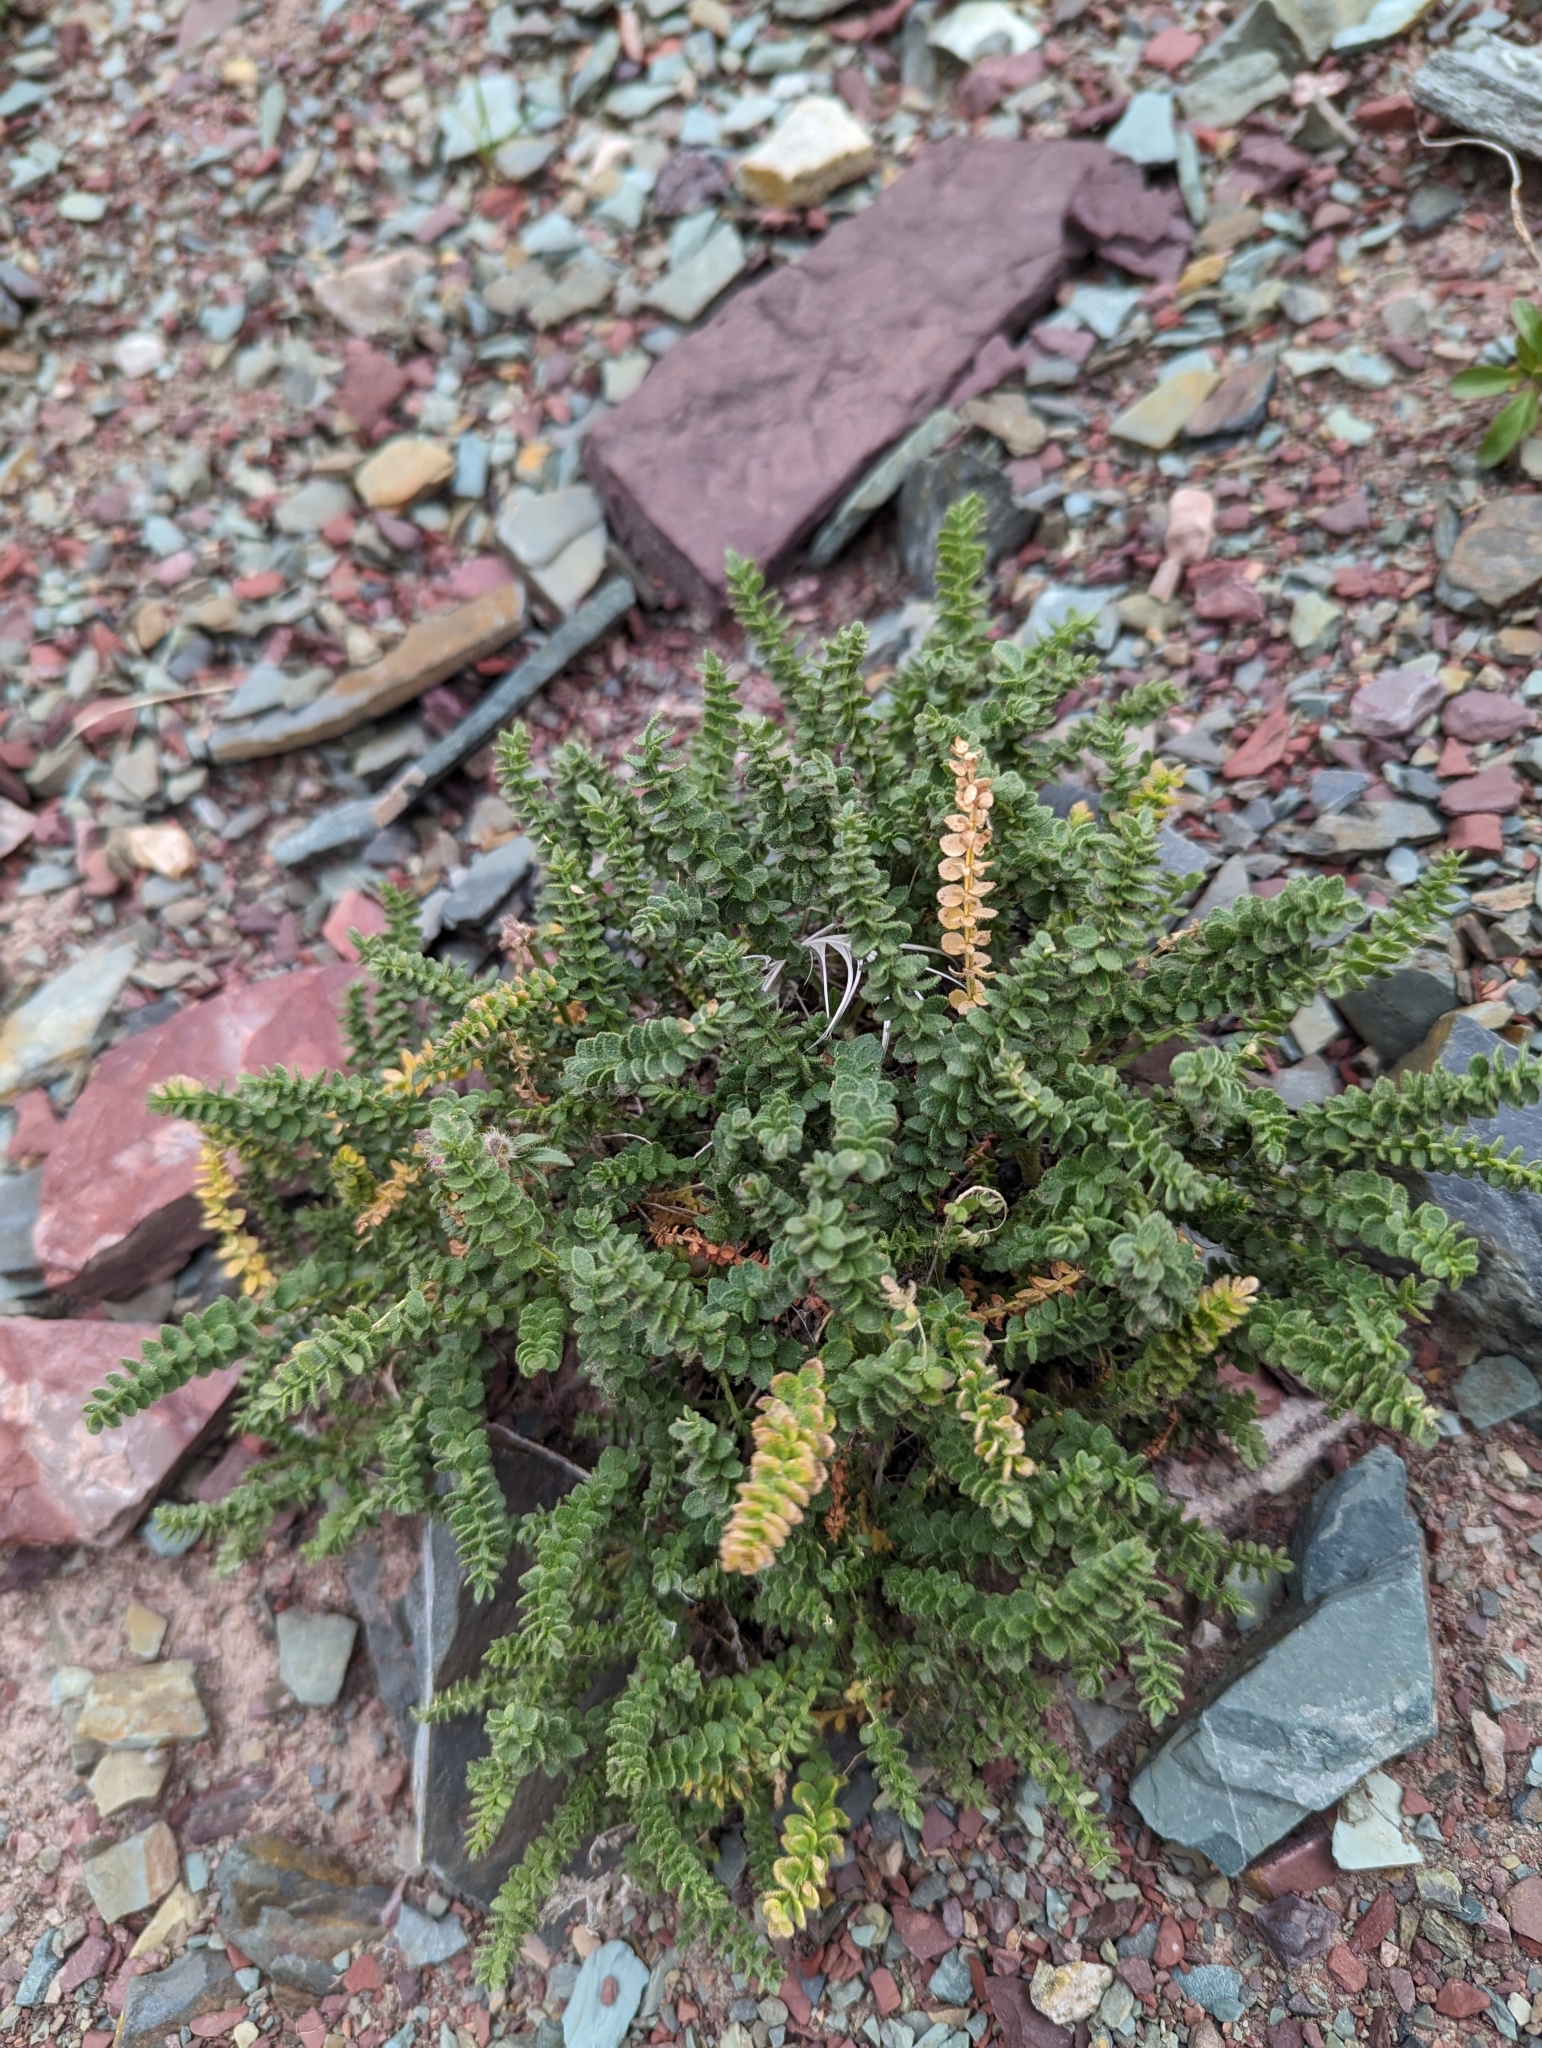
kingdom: Plantae
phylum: Tracheophyta
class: Magnoliopsida
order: Ericales
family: Polemoniaceae
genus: Polemonium
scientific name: Polemonium viscosum
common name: Skunk jacob's-ladder
